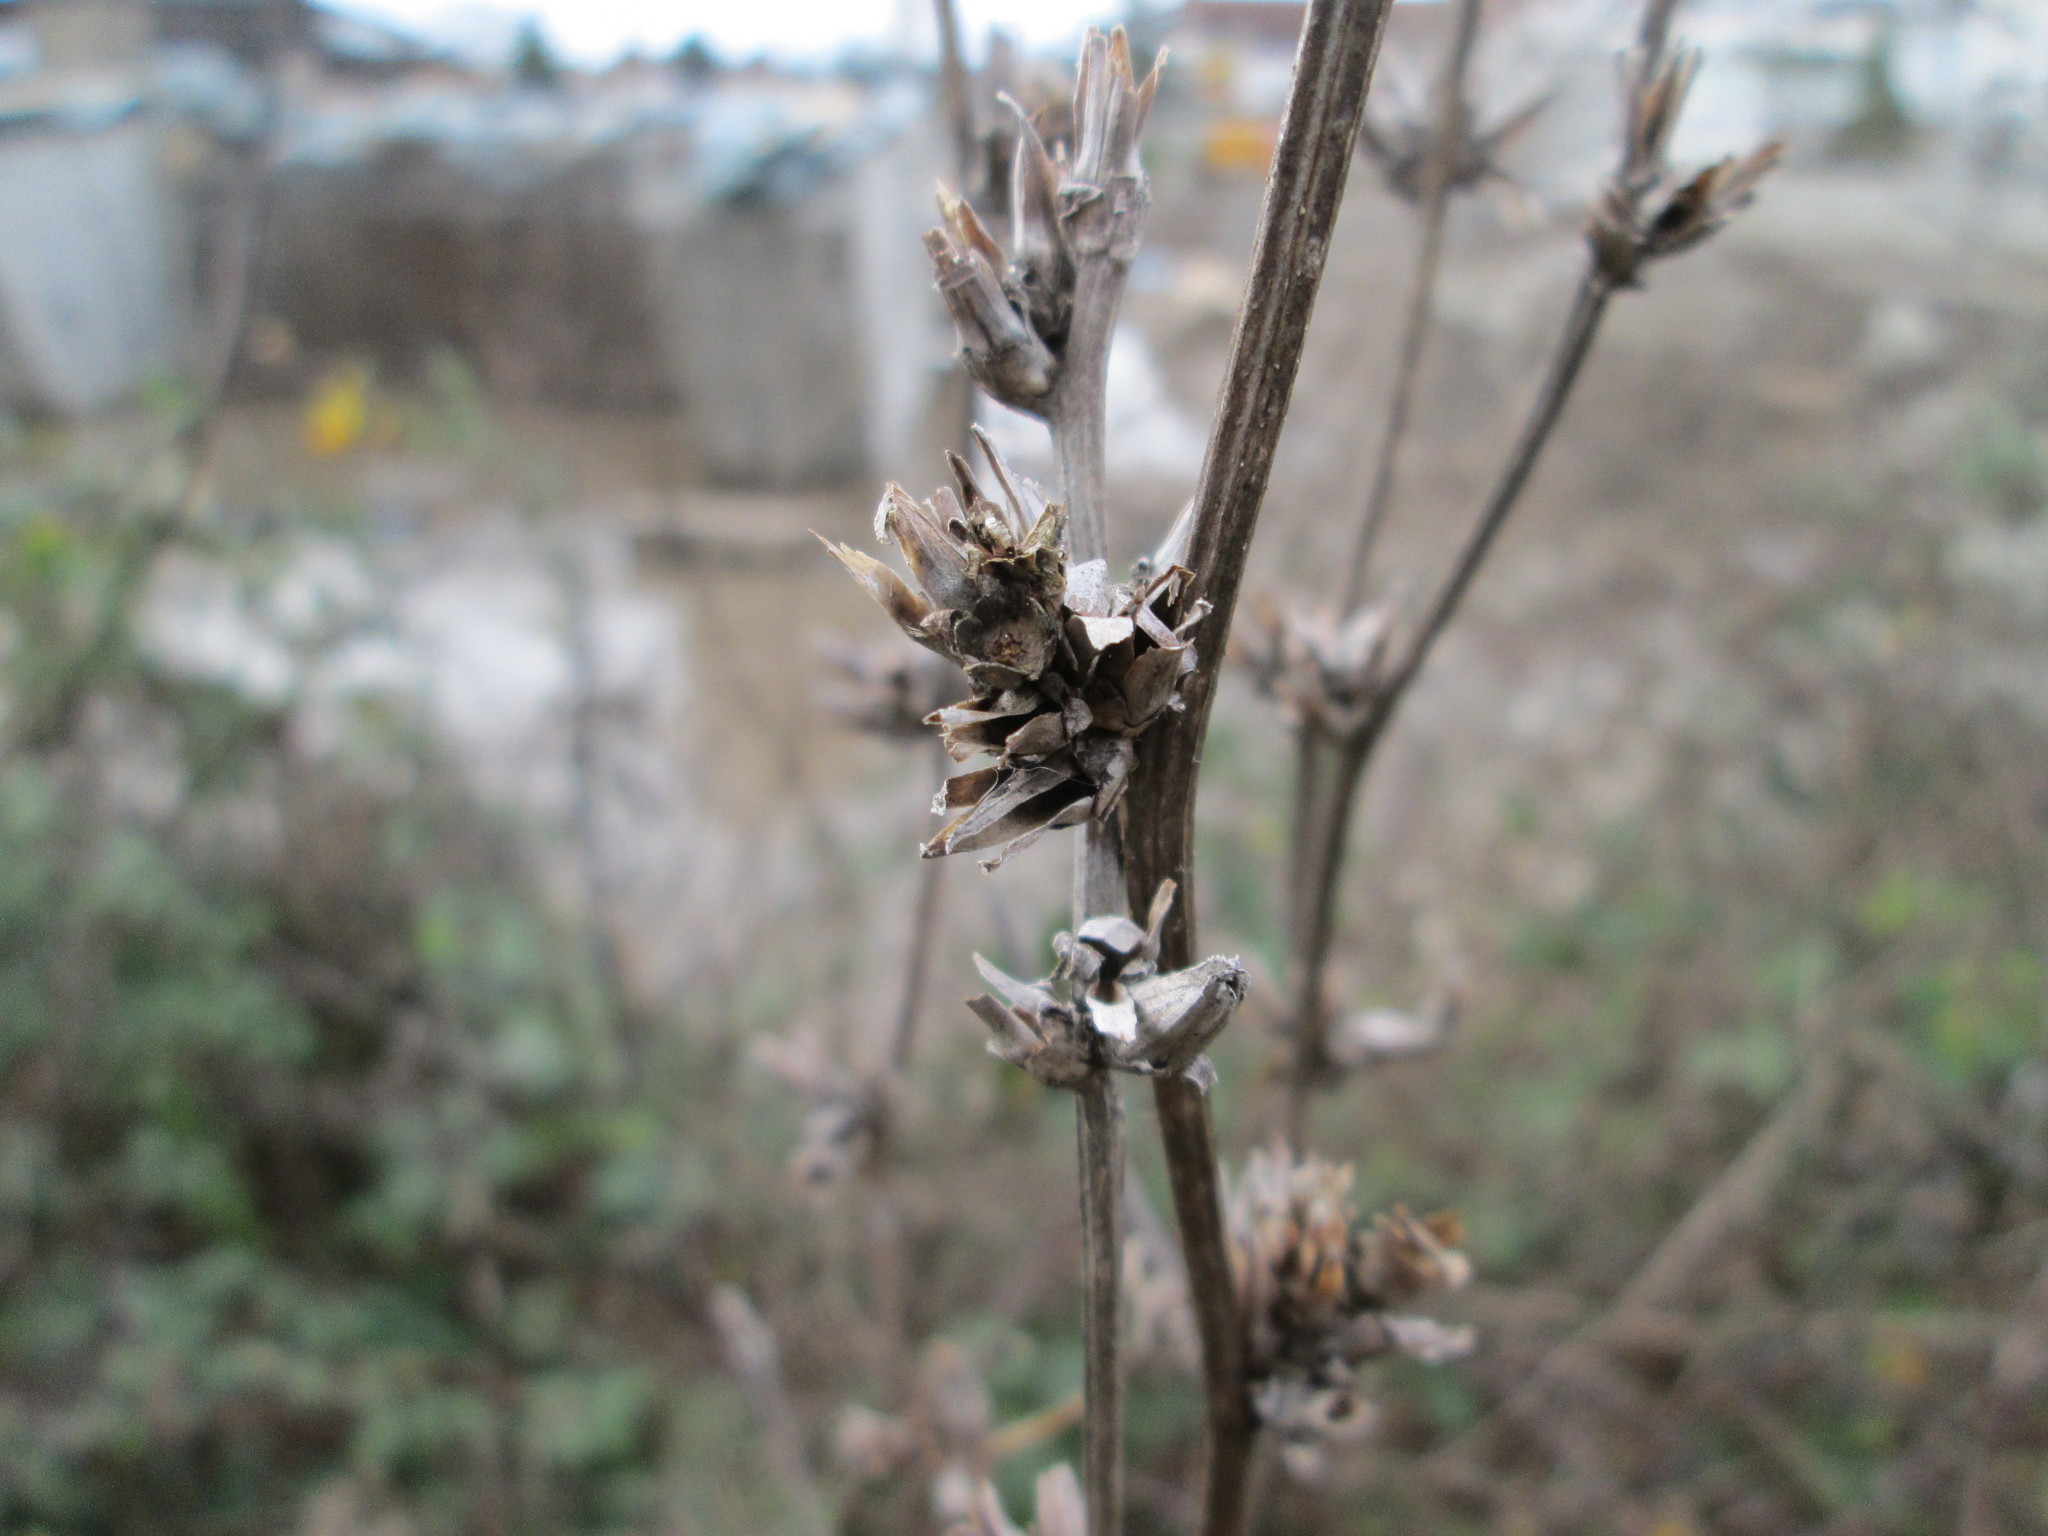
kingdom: Plantae
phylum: Tracheophyta
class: Magnoliopsida
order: Asterales
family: Asteraceae
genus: Cichorium
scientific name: Cichorium intybus
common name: Chicory
